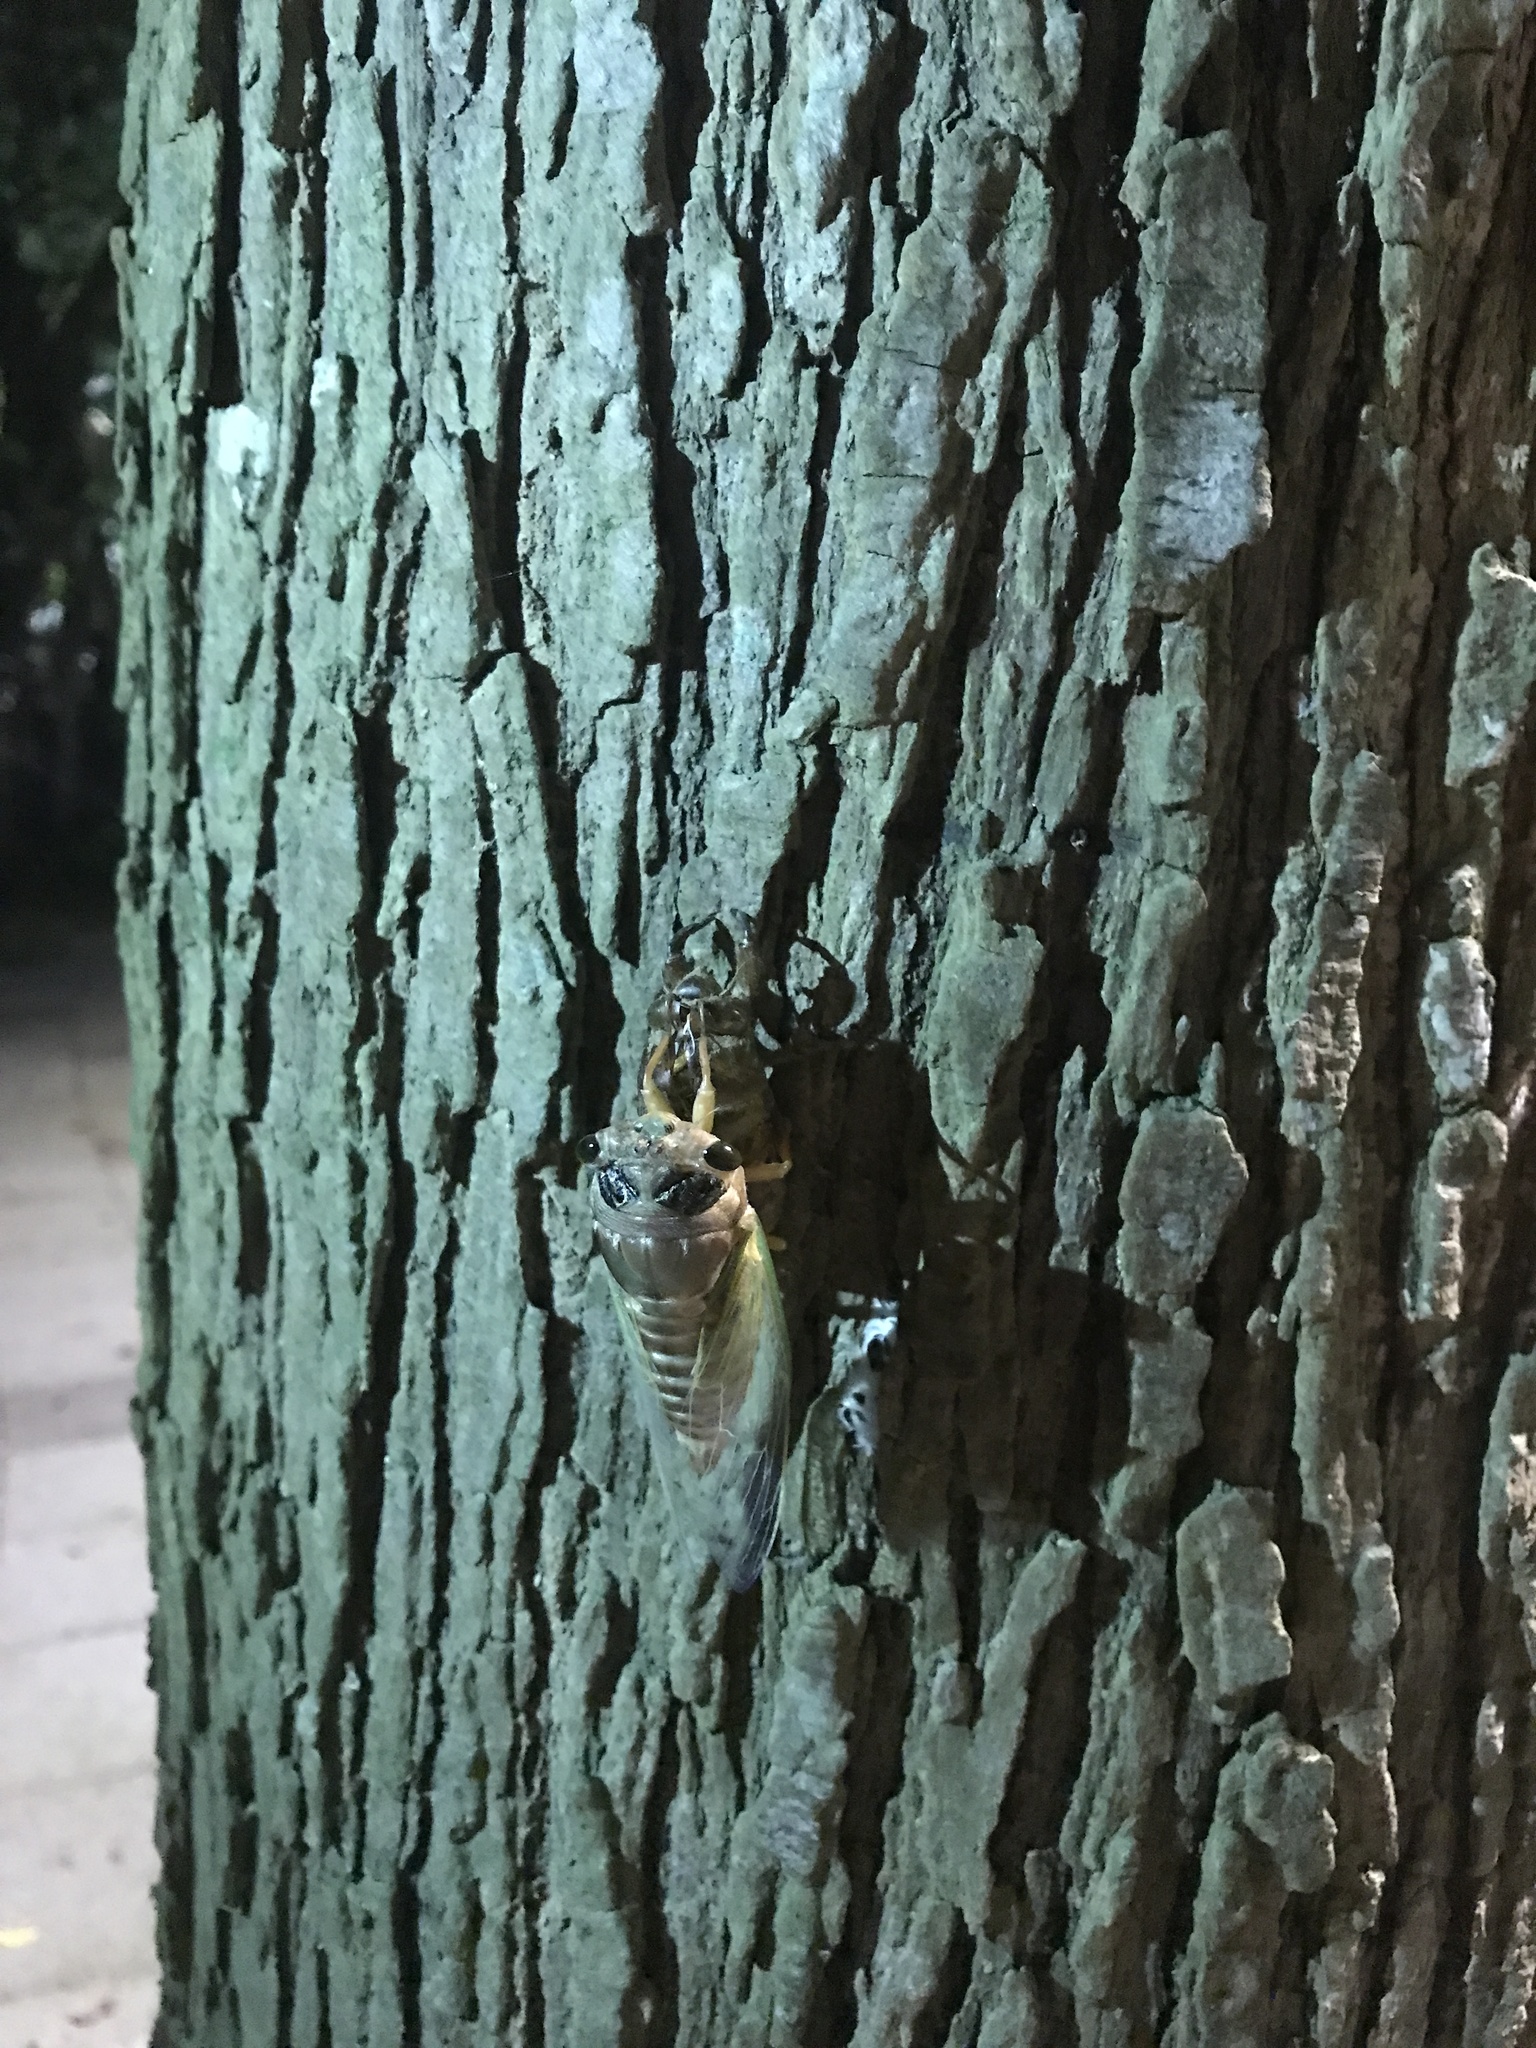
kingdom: Animalia
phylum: Arthropoda
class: Insecta
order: Hemiptera
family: Cicadidae
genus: Cryptotympana
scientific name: Cryptotympana takasagona
